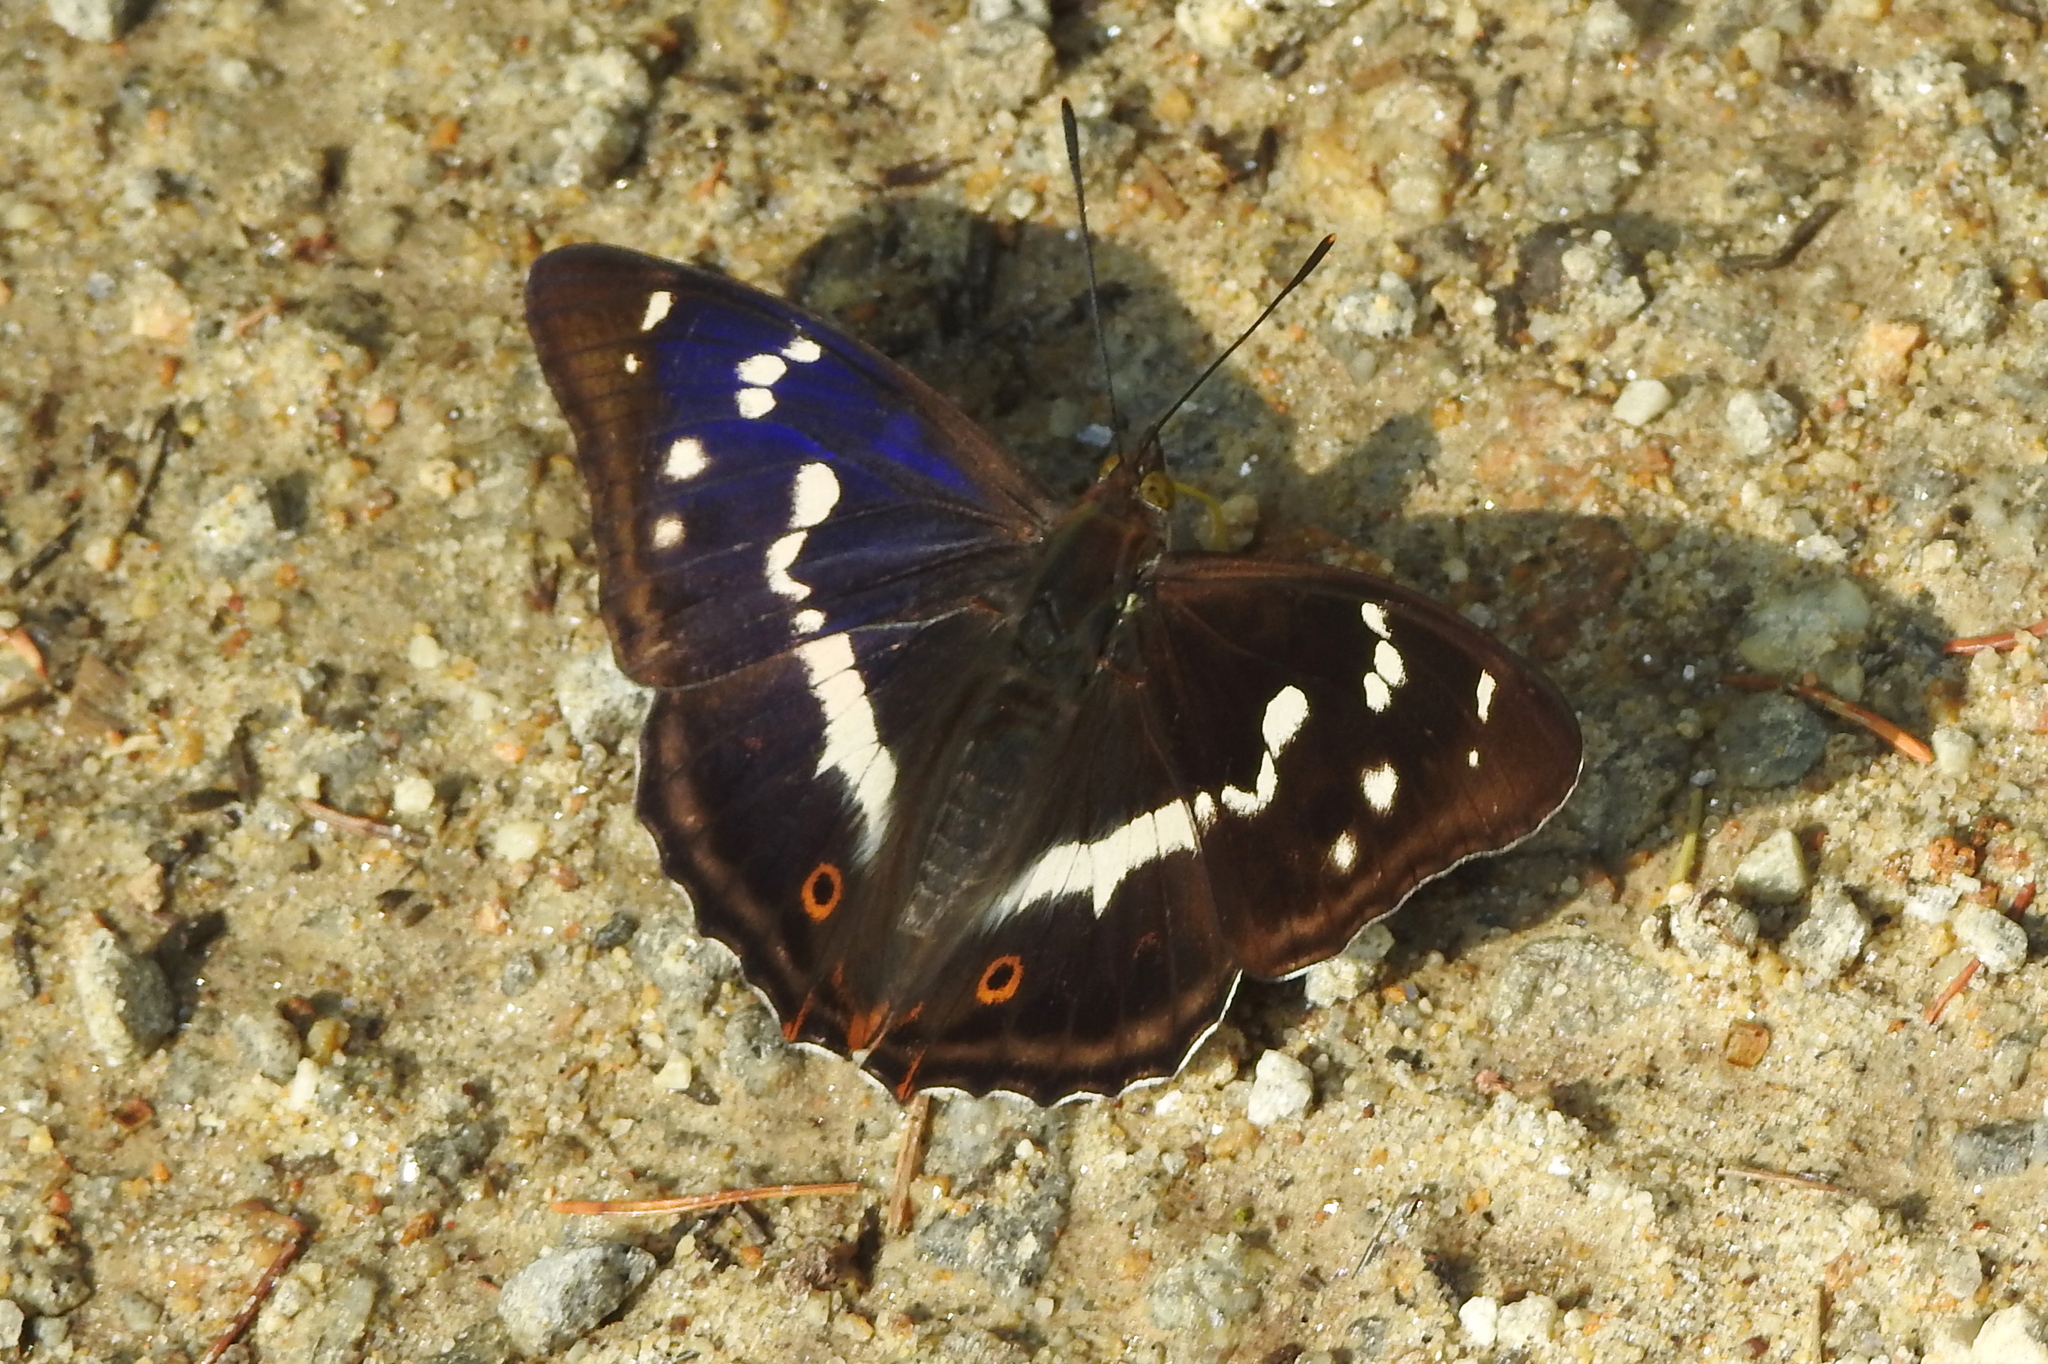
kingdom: Animalia
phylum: Arthropoda
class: Insecta
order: Lepidoptera
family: Nymphalidae
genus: Apatura
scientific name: Apatura iris
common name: Purple emperor
